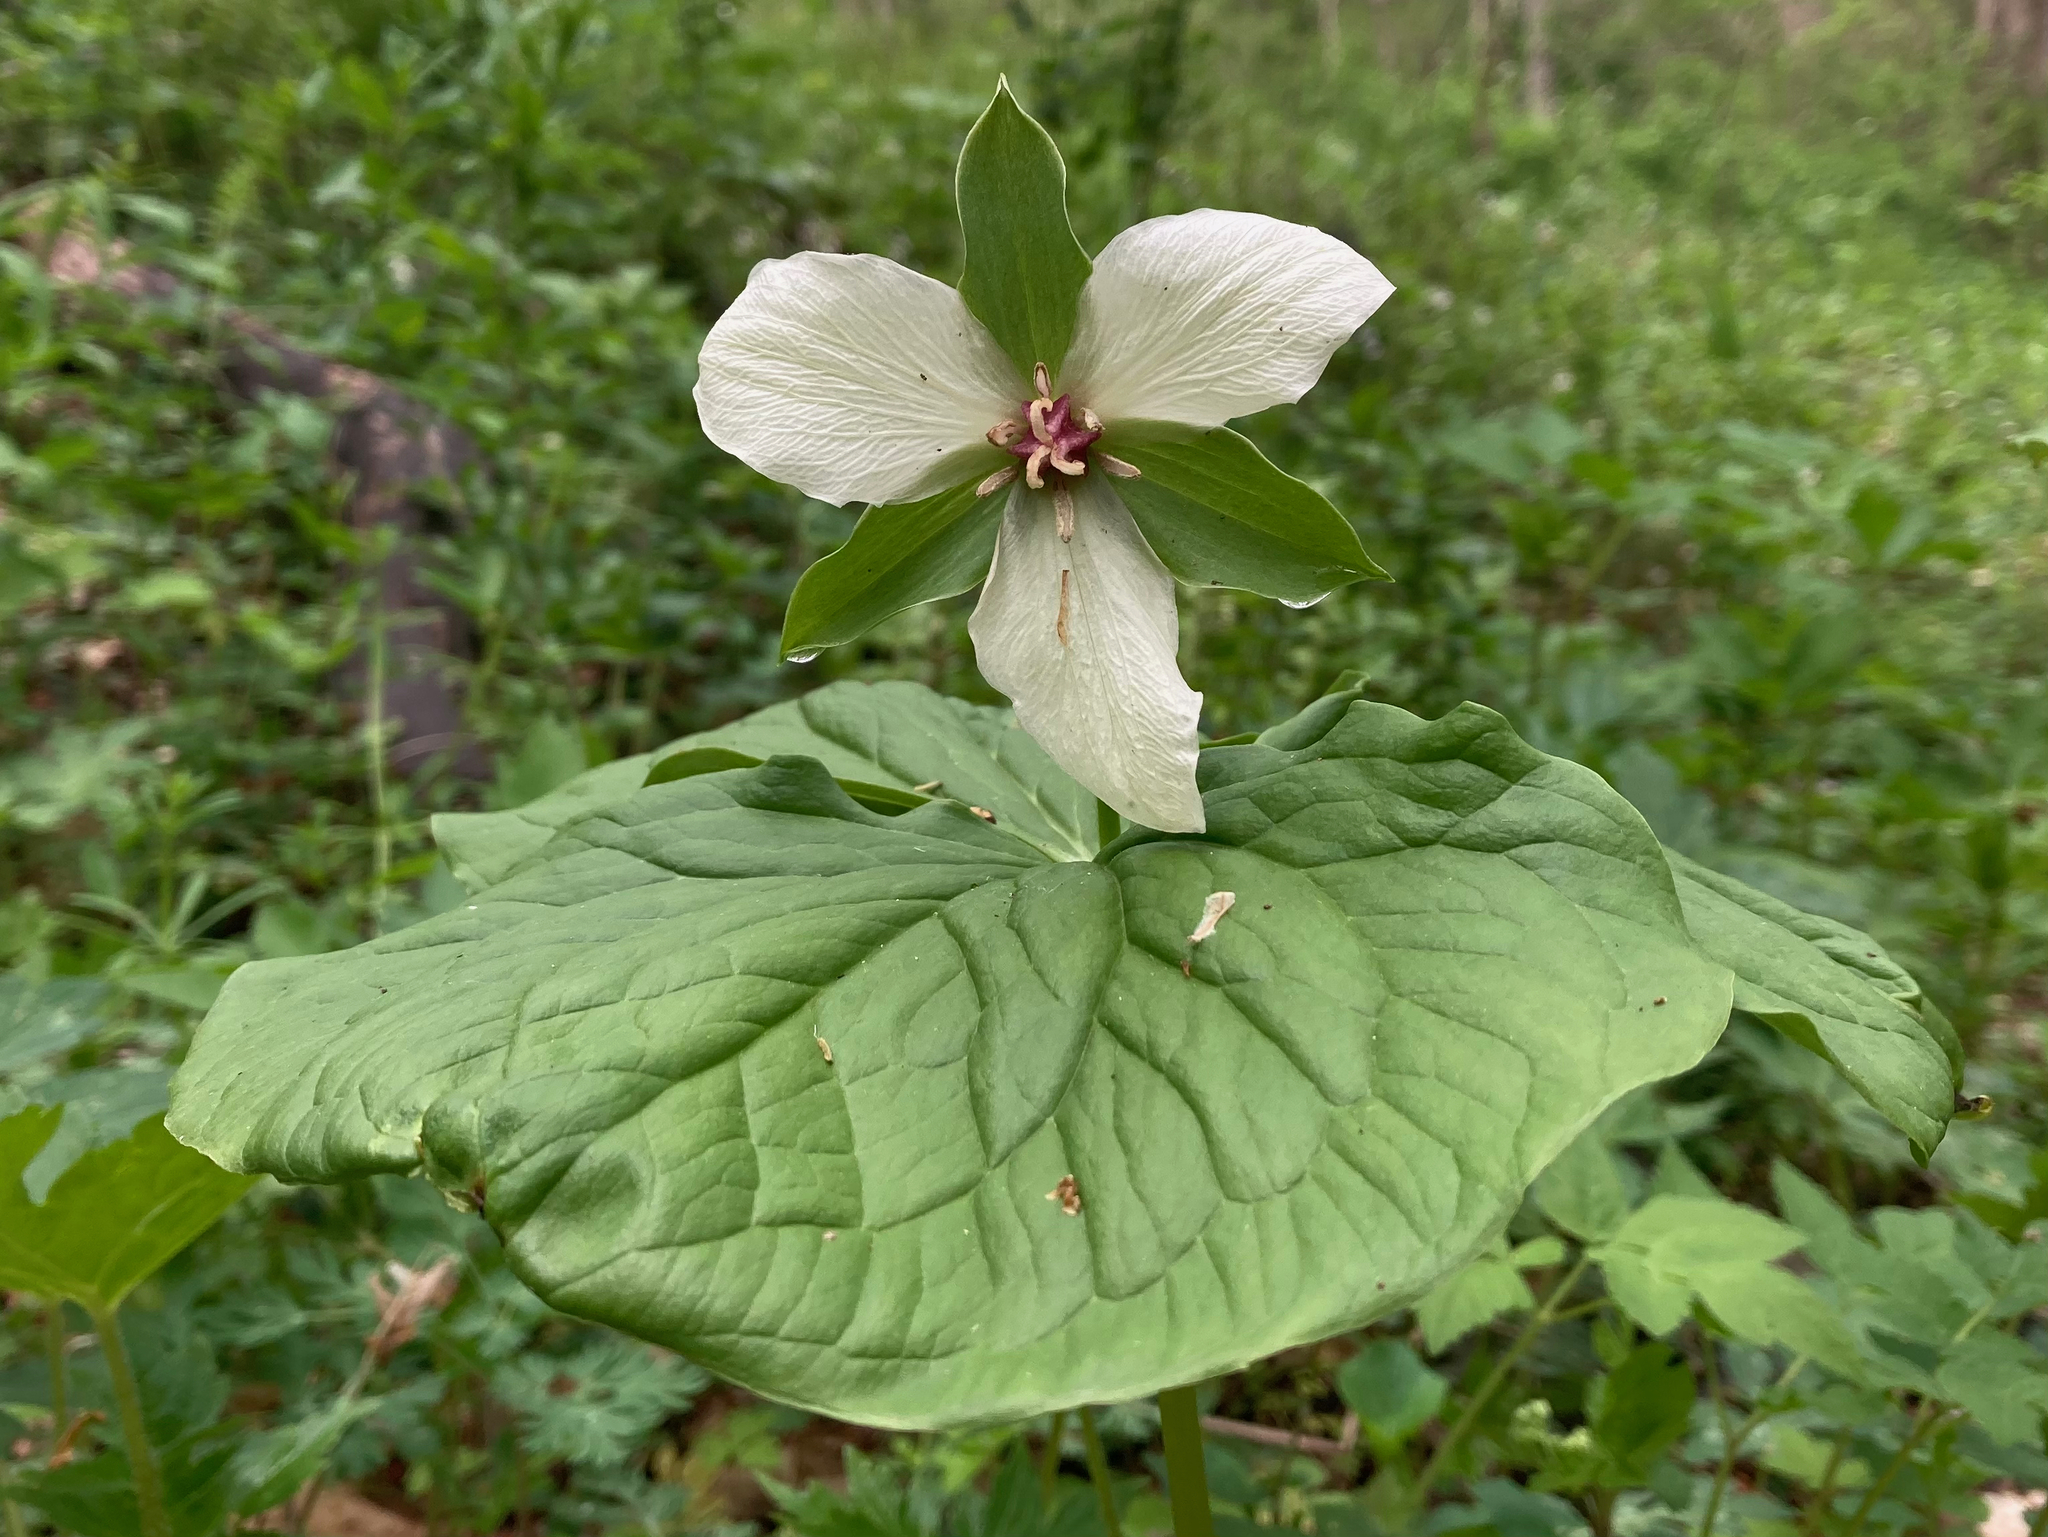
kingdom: Plantae
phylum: Tracheophyta
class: Liliopsida
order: Liliales
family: Melanthiaceae
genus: Trillium
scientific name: Trillium flexipes
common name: Drooping trillium
